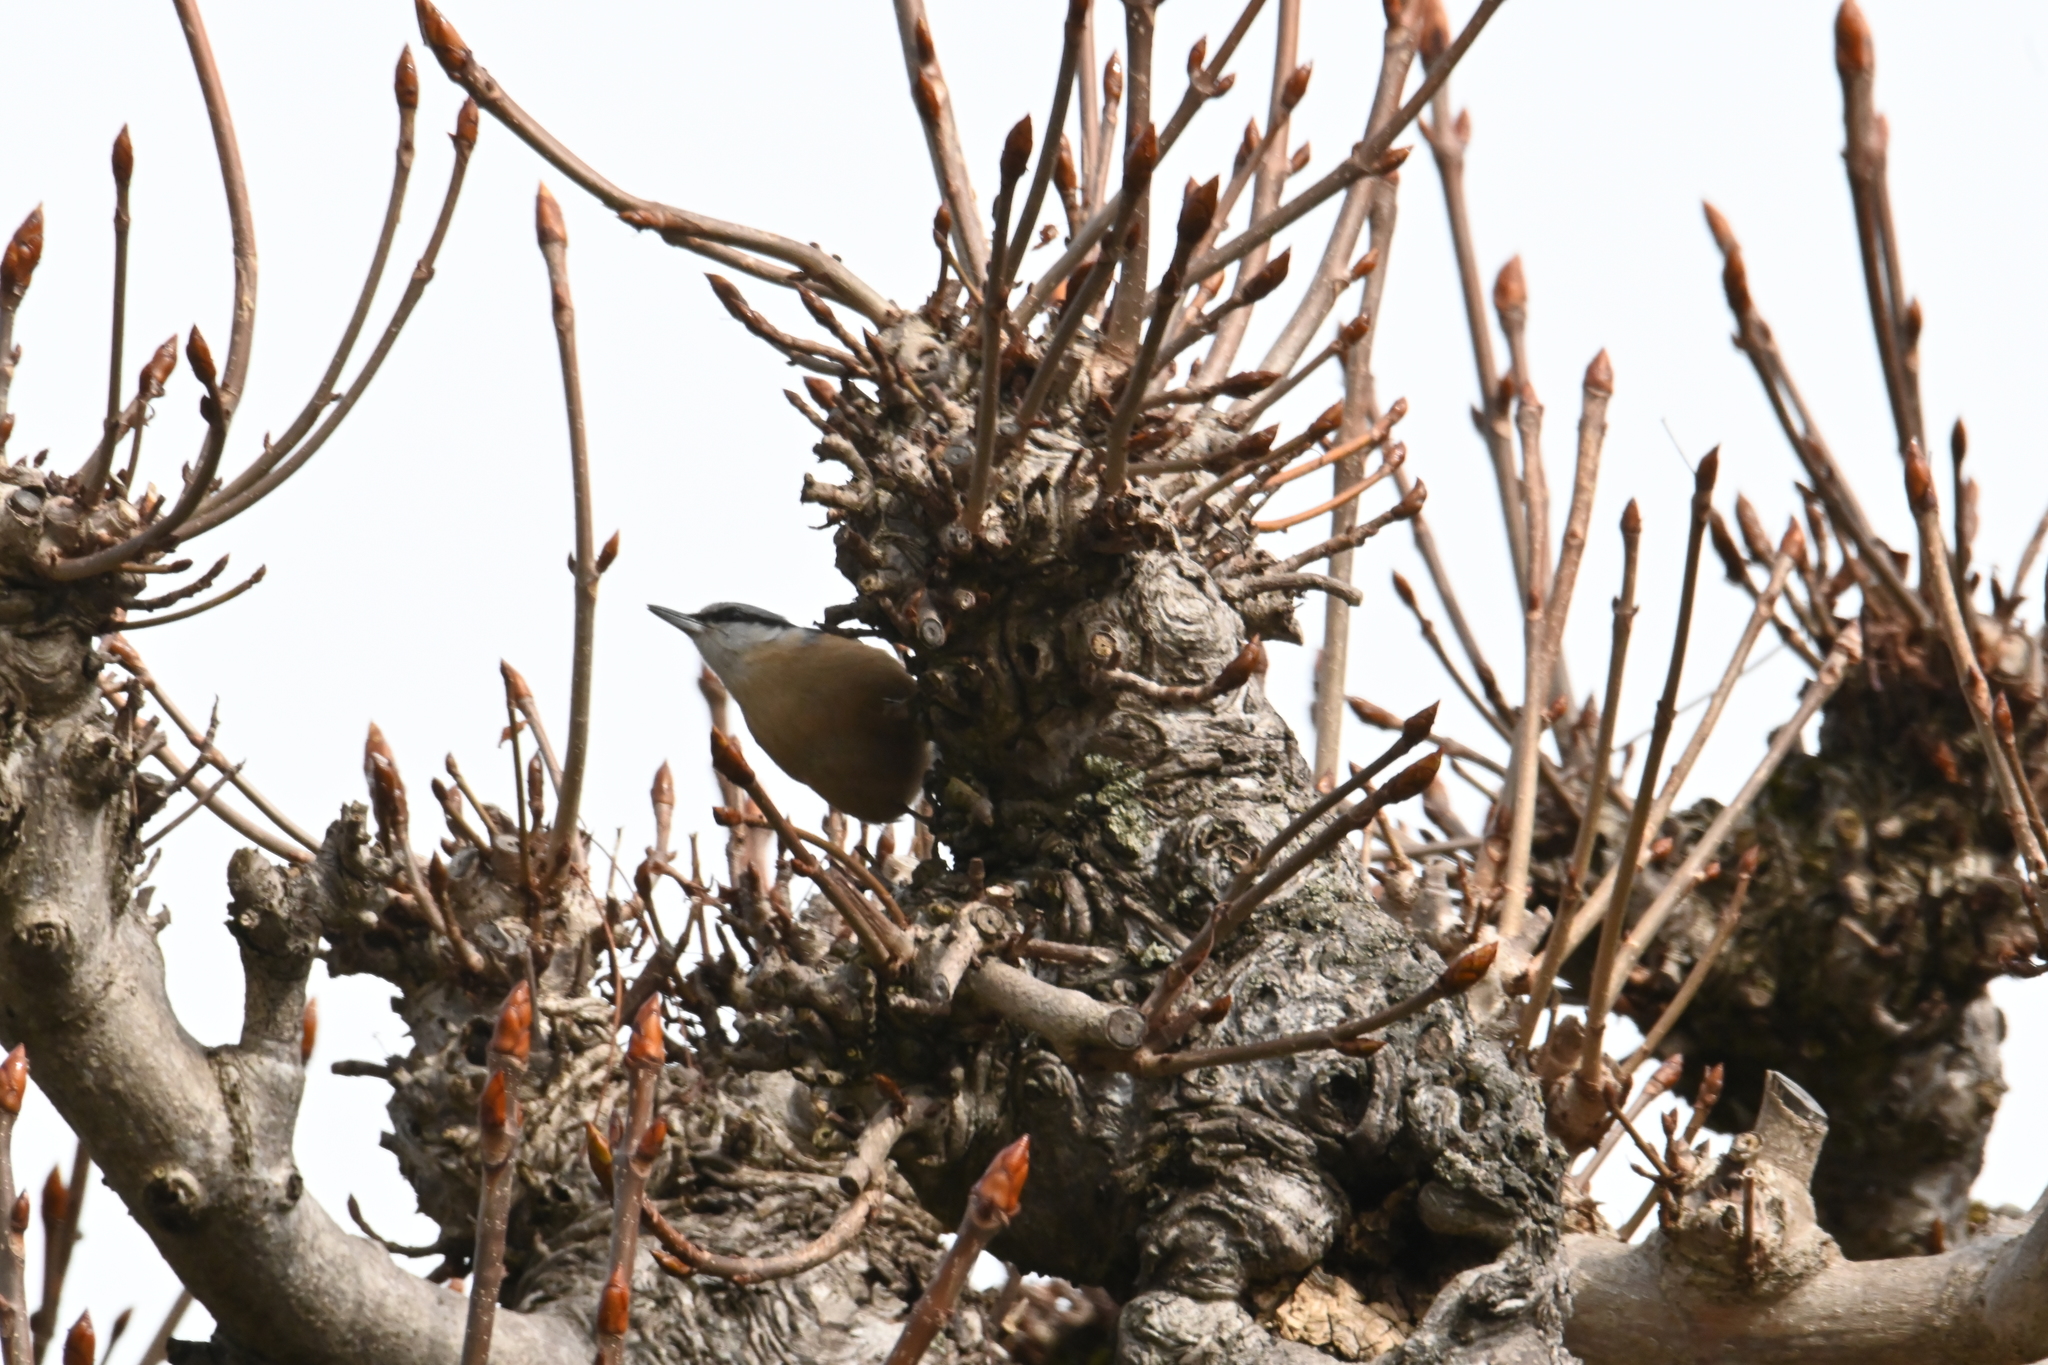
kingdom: Animalia
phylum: Chordata
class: Aves
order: Passeriformes
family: Sittidae
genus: Sitta
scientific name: Sitta europaea
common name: Eurasian nuthatch
